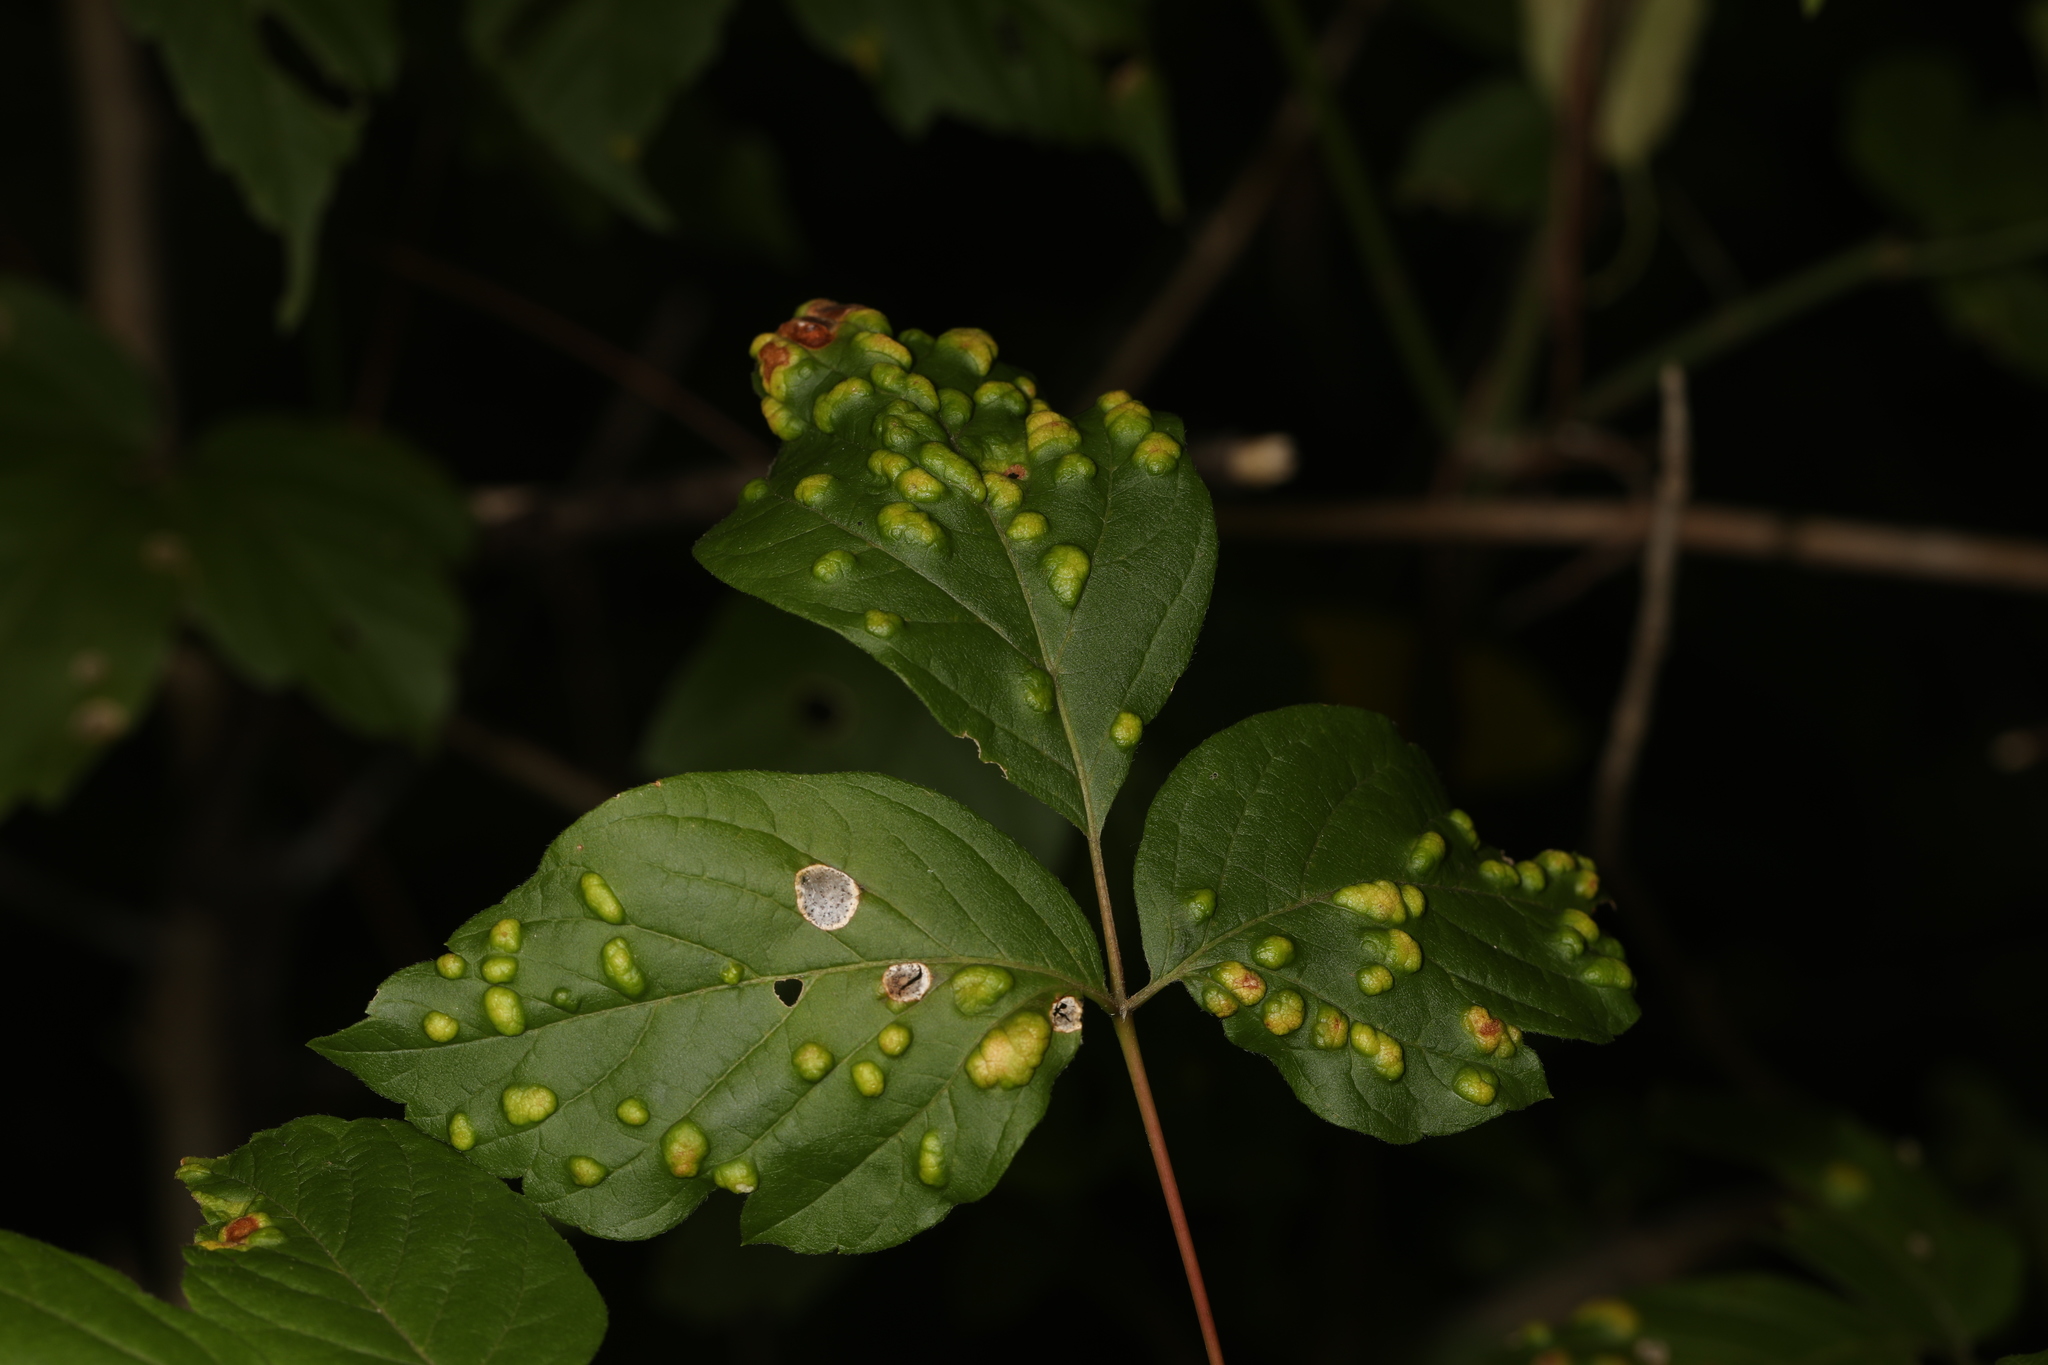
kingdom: Animalia
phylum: Arthropoda
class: Arachnida
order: Trombidiformes
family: Eriophyidae
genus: Aceria
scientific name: Aceria
